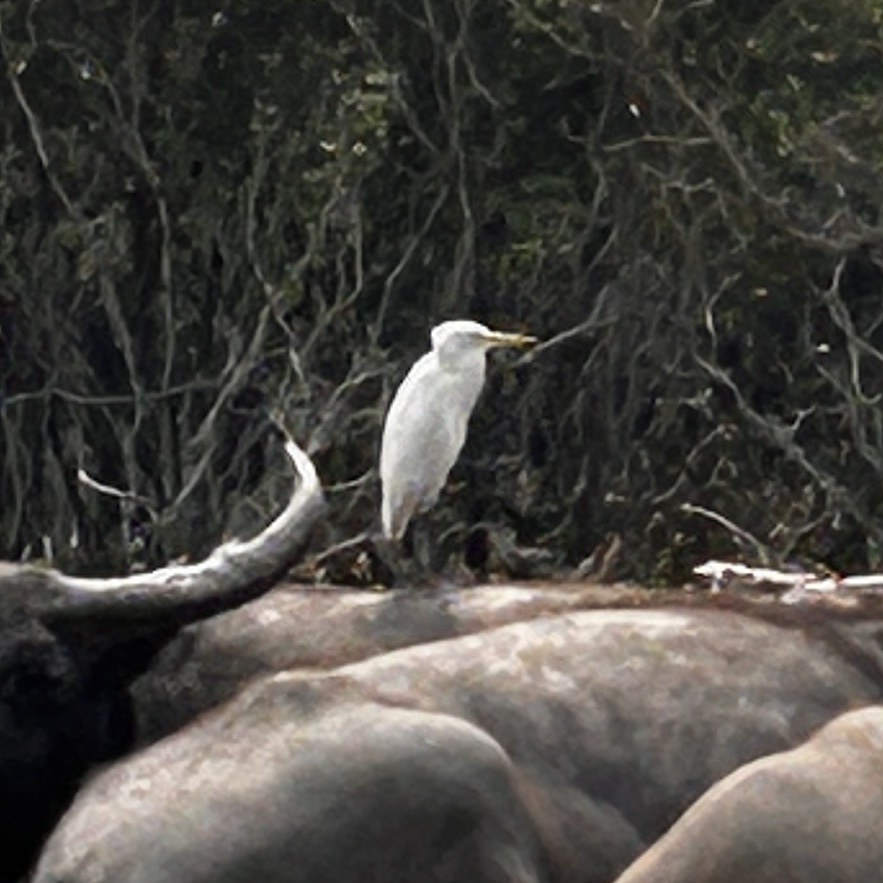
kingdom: Animalia
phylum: Chordata
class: Aves
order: Pelecaniformes
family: Ardeidae
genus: Bubulcus
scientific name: Bubulcus coromandus
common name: Eastern cattle egret
